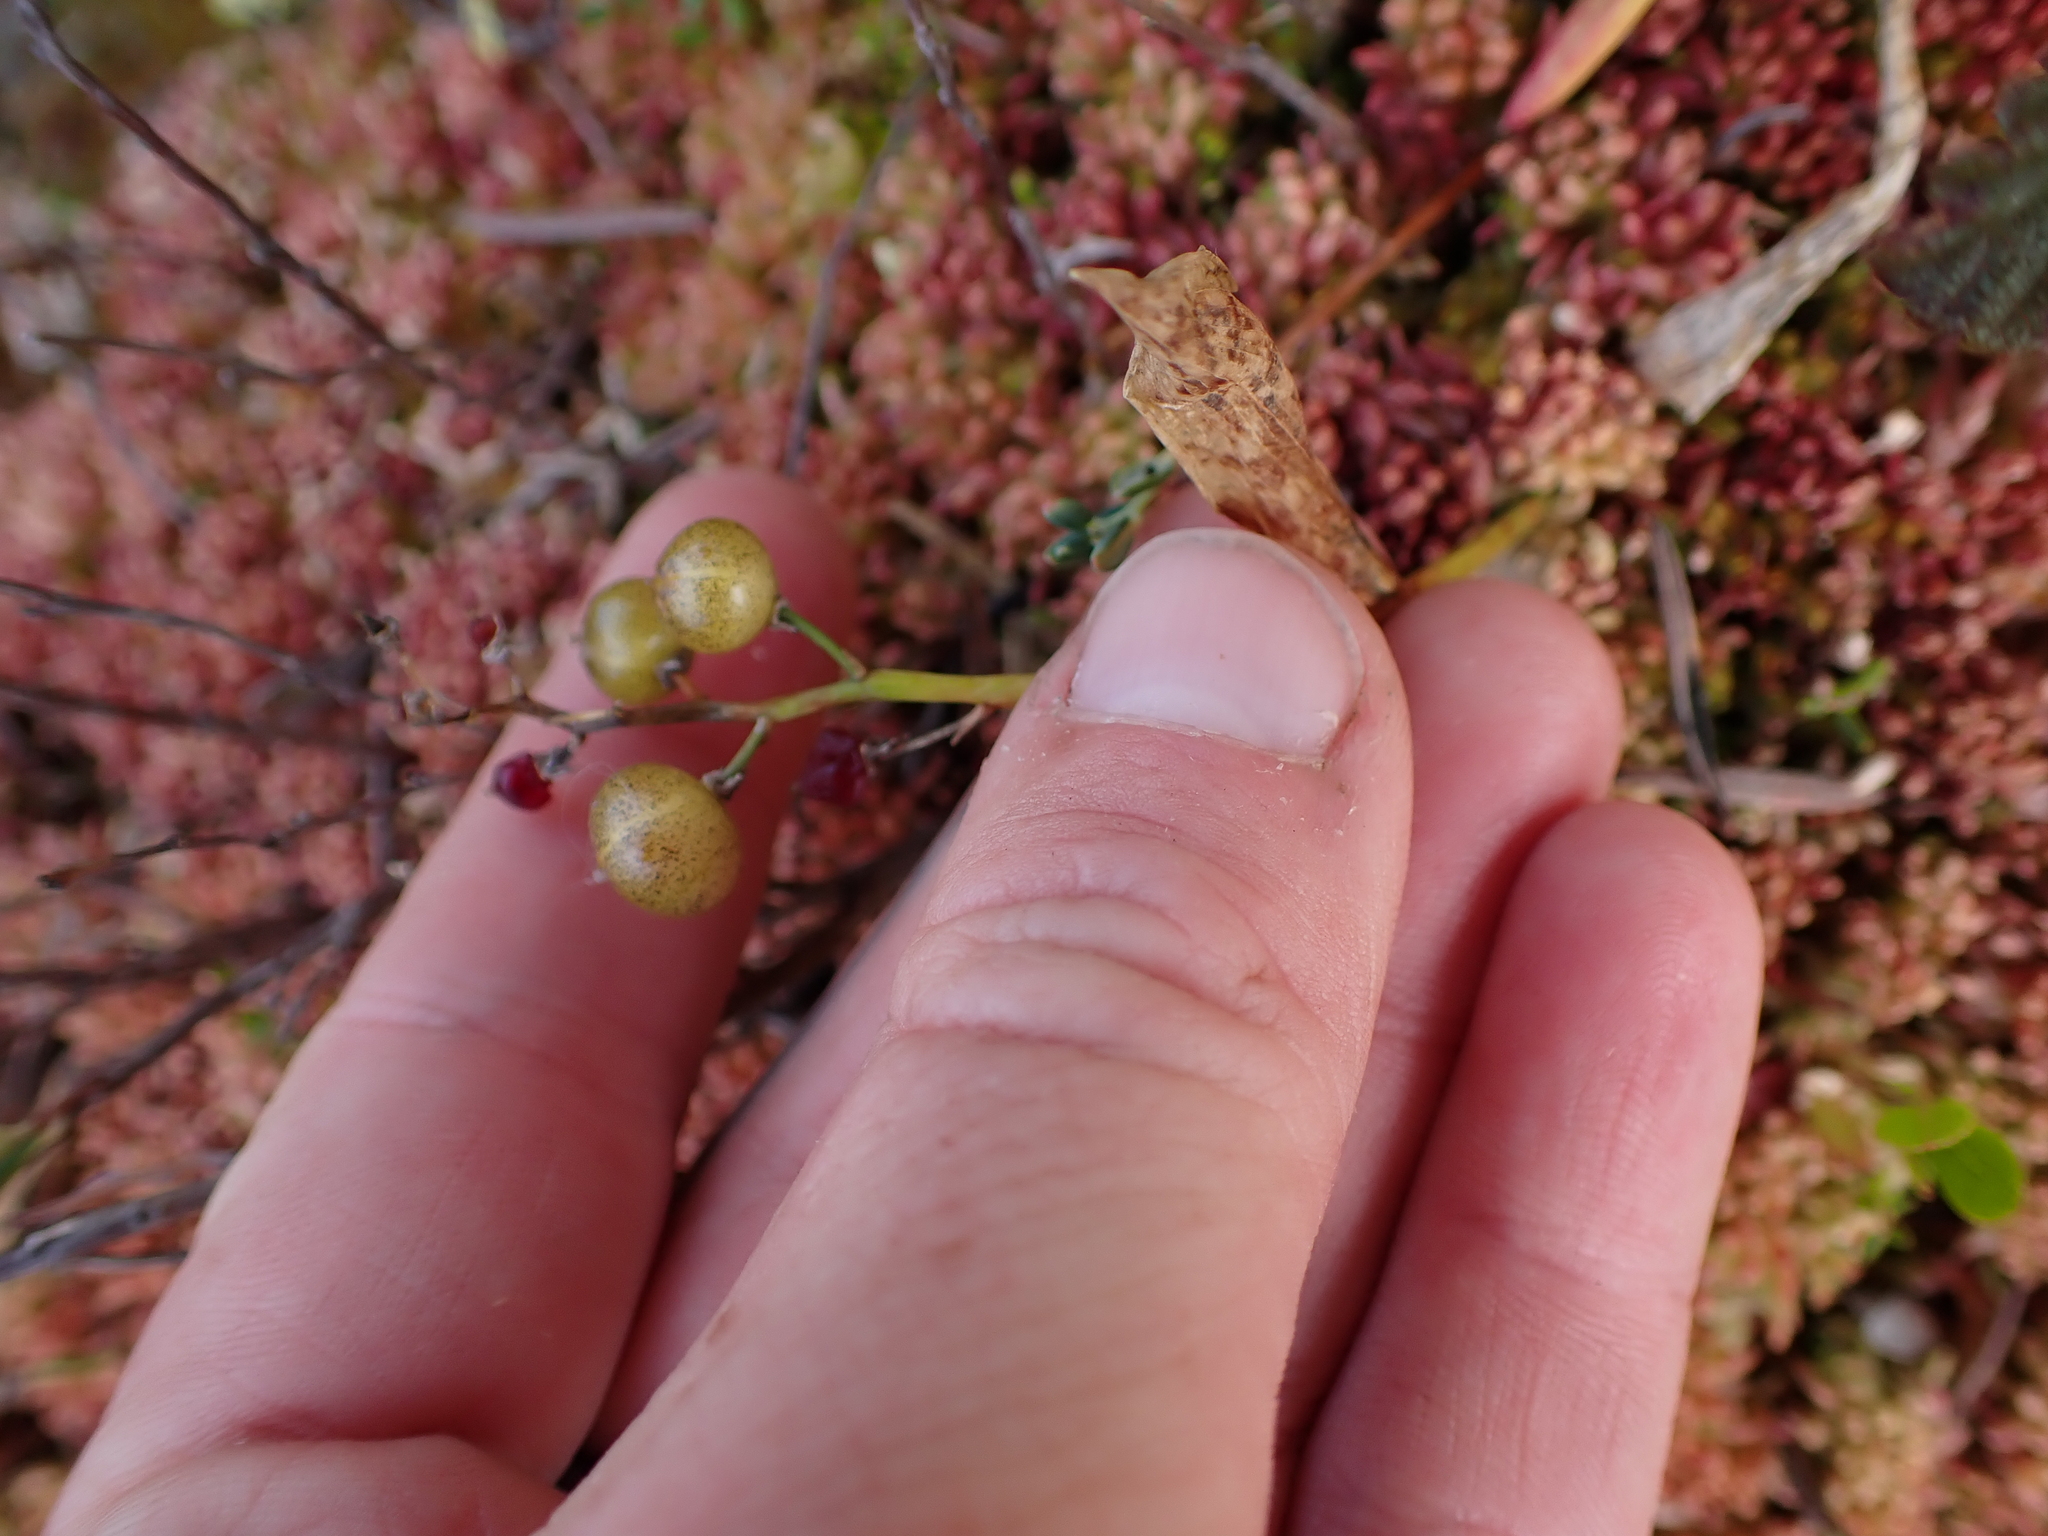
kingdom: Plantae
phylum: Tracheophyta
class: Liliopsida
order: Asparagales
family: Asparagaceae
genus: Maianthemum
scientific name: Maianthemum trifolium
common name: Swamp false solomon's seal
